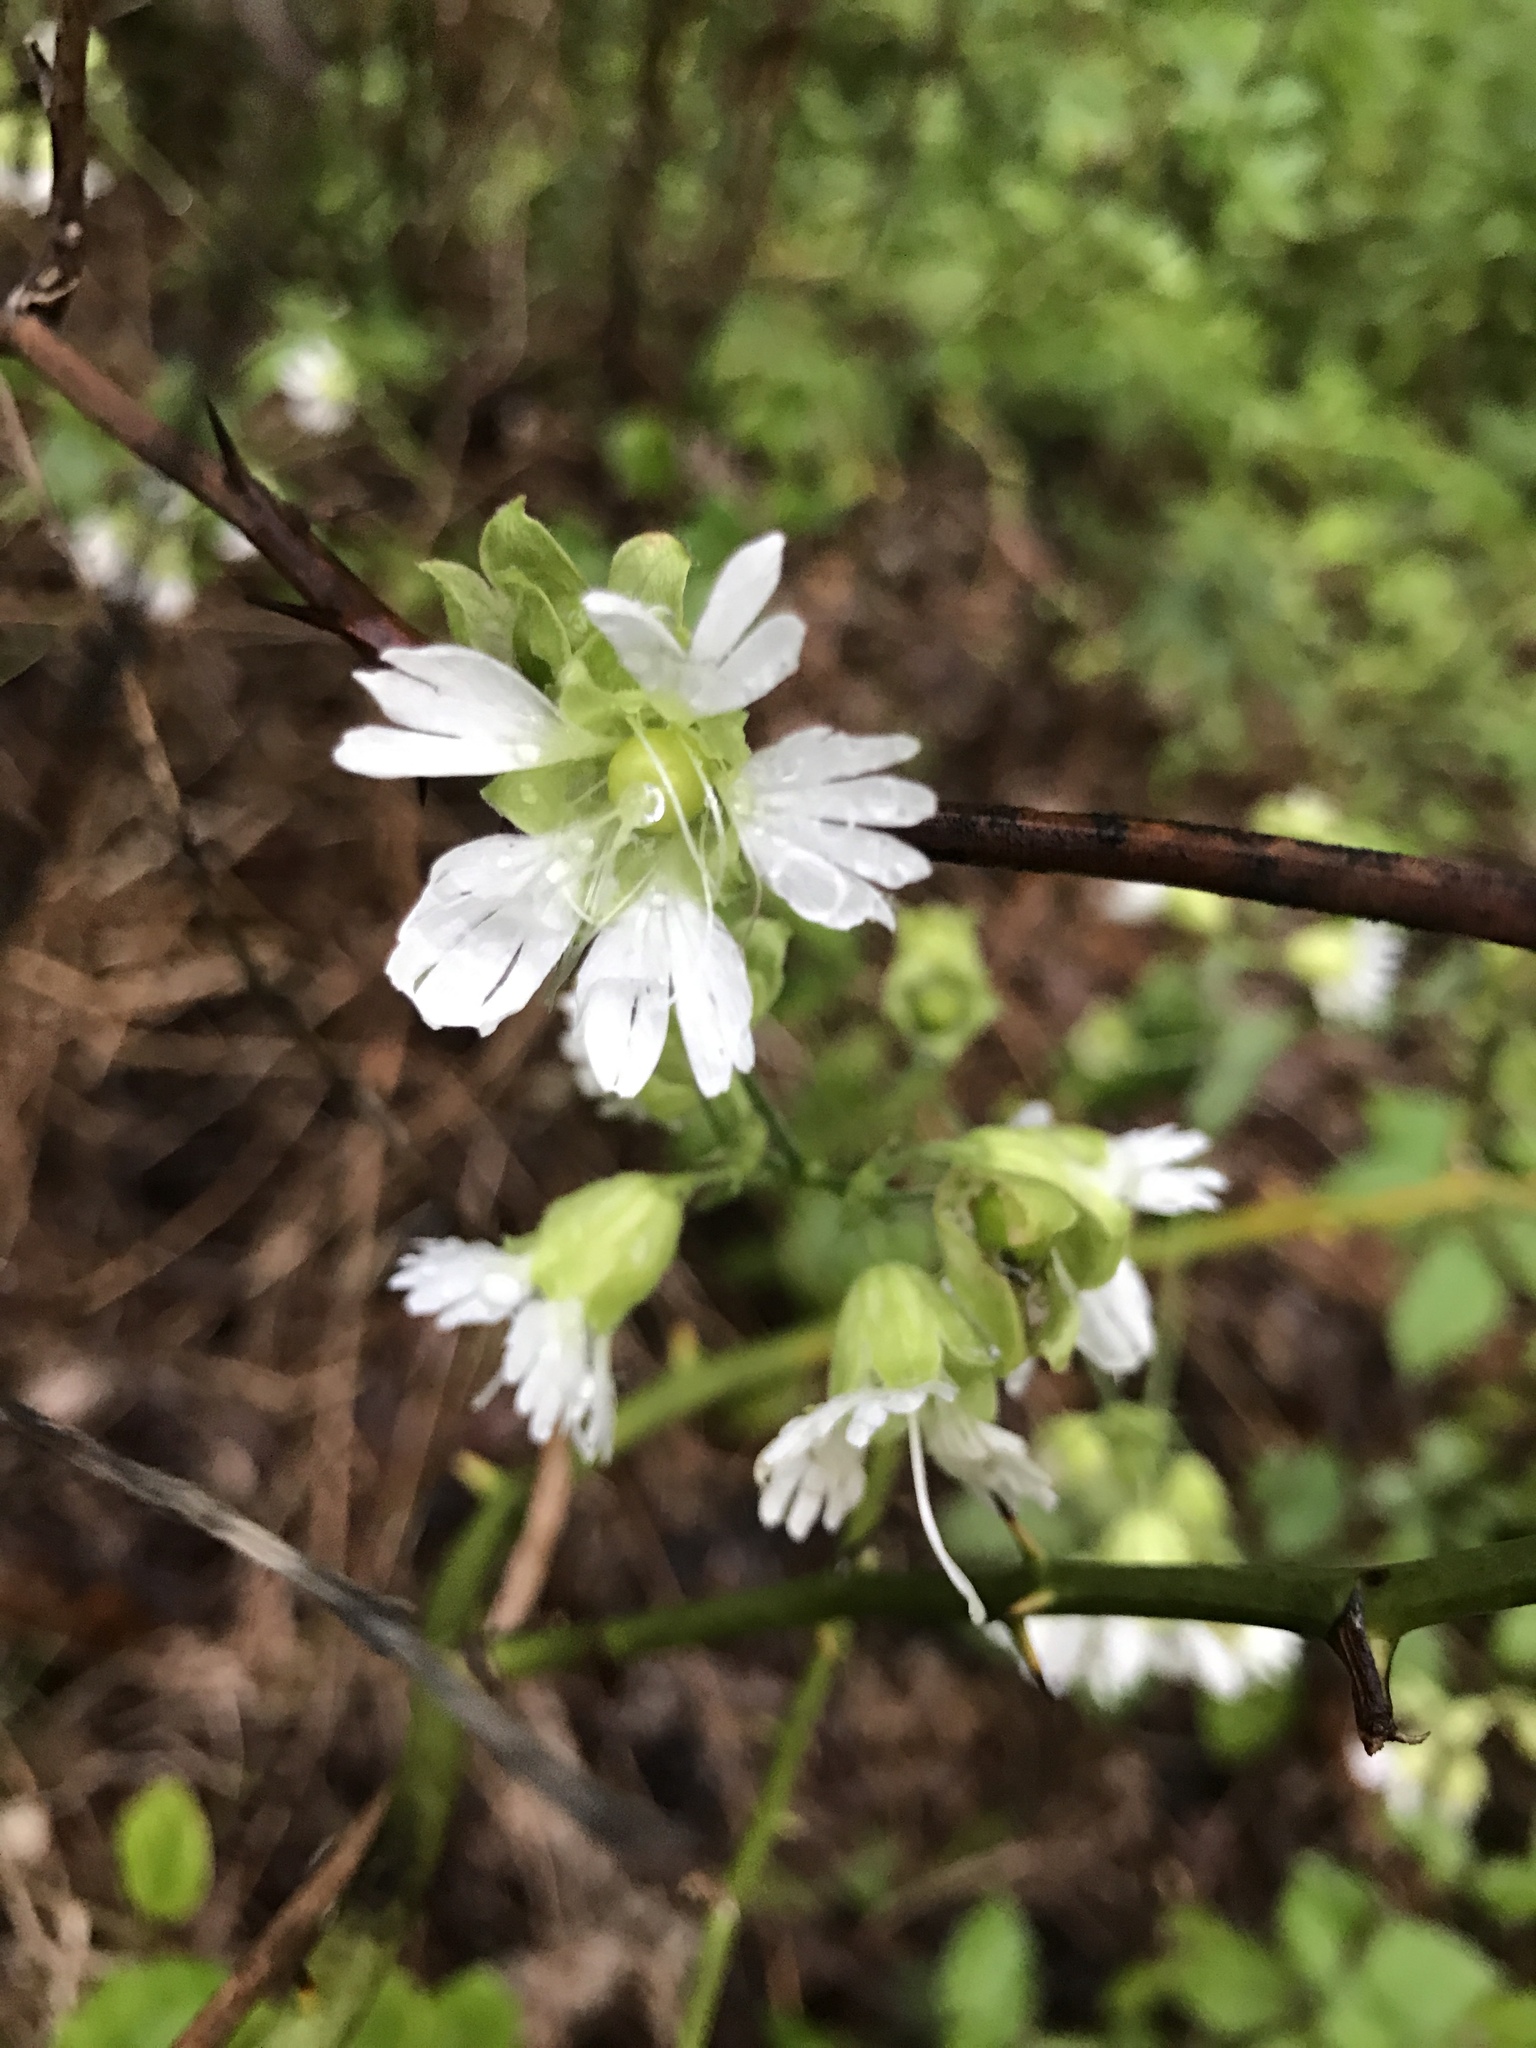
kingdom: Plantae
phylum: Tracheophyta
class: Magnoliopsida
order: Caryophyllales
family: Caryophyllaceae
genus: Silene
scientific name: Silene stellata
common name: Starry campion
